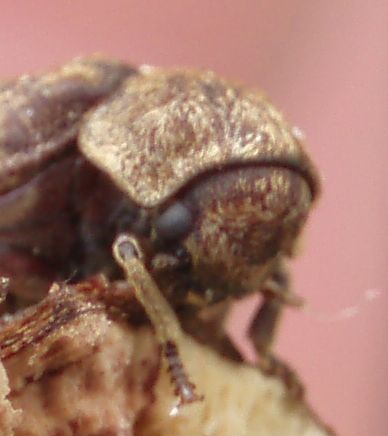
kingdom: Animalia
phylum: Arthropoda
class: Insecta
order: Coleoptera
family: Anobiidae
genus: Xestobium
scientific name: Xestobium rufovillosum
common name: Death-watch beetle
